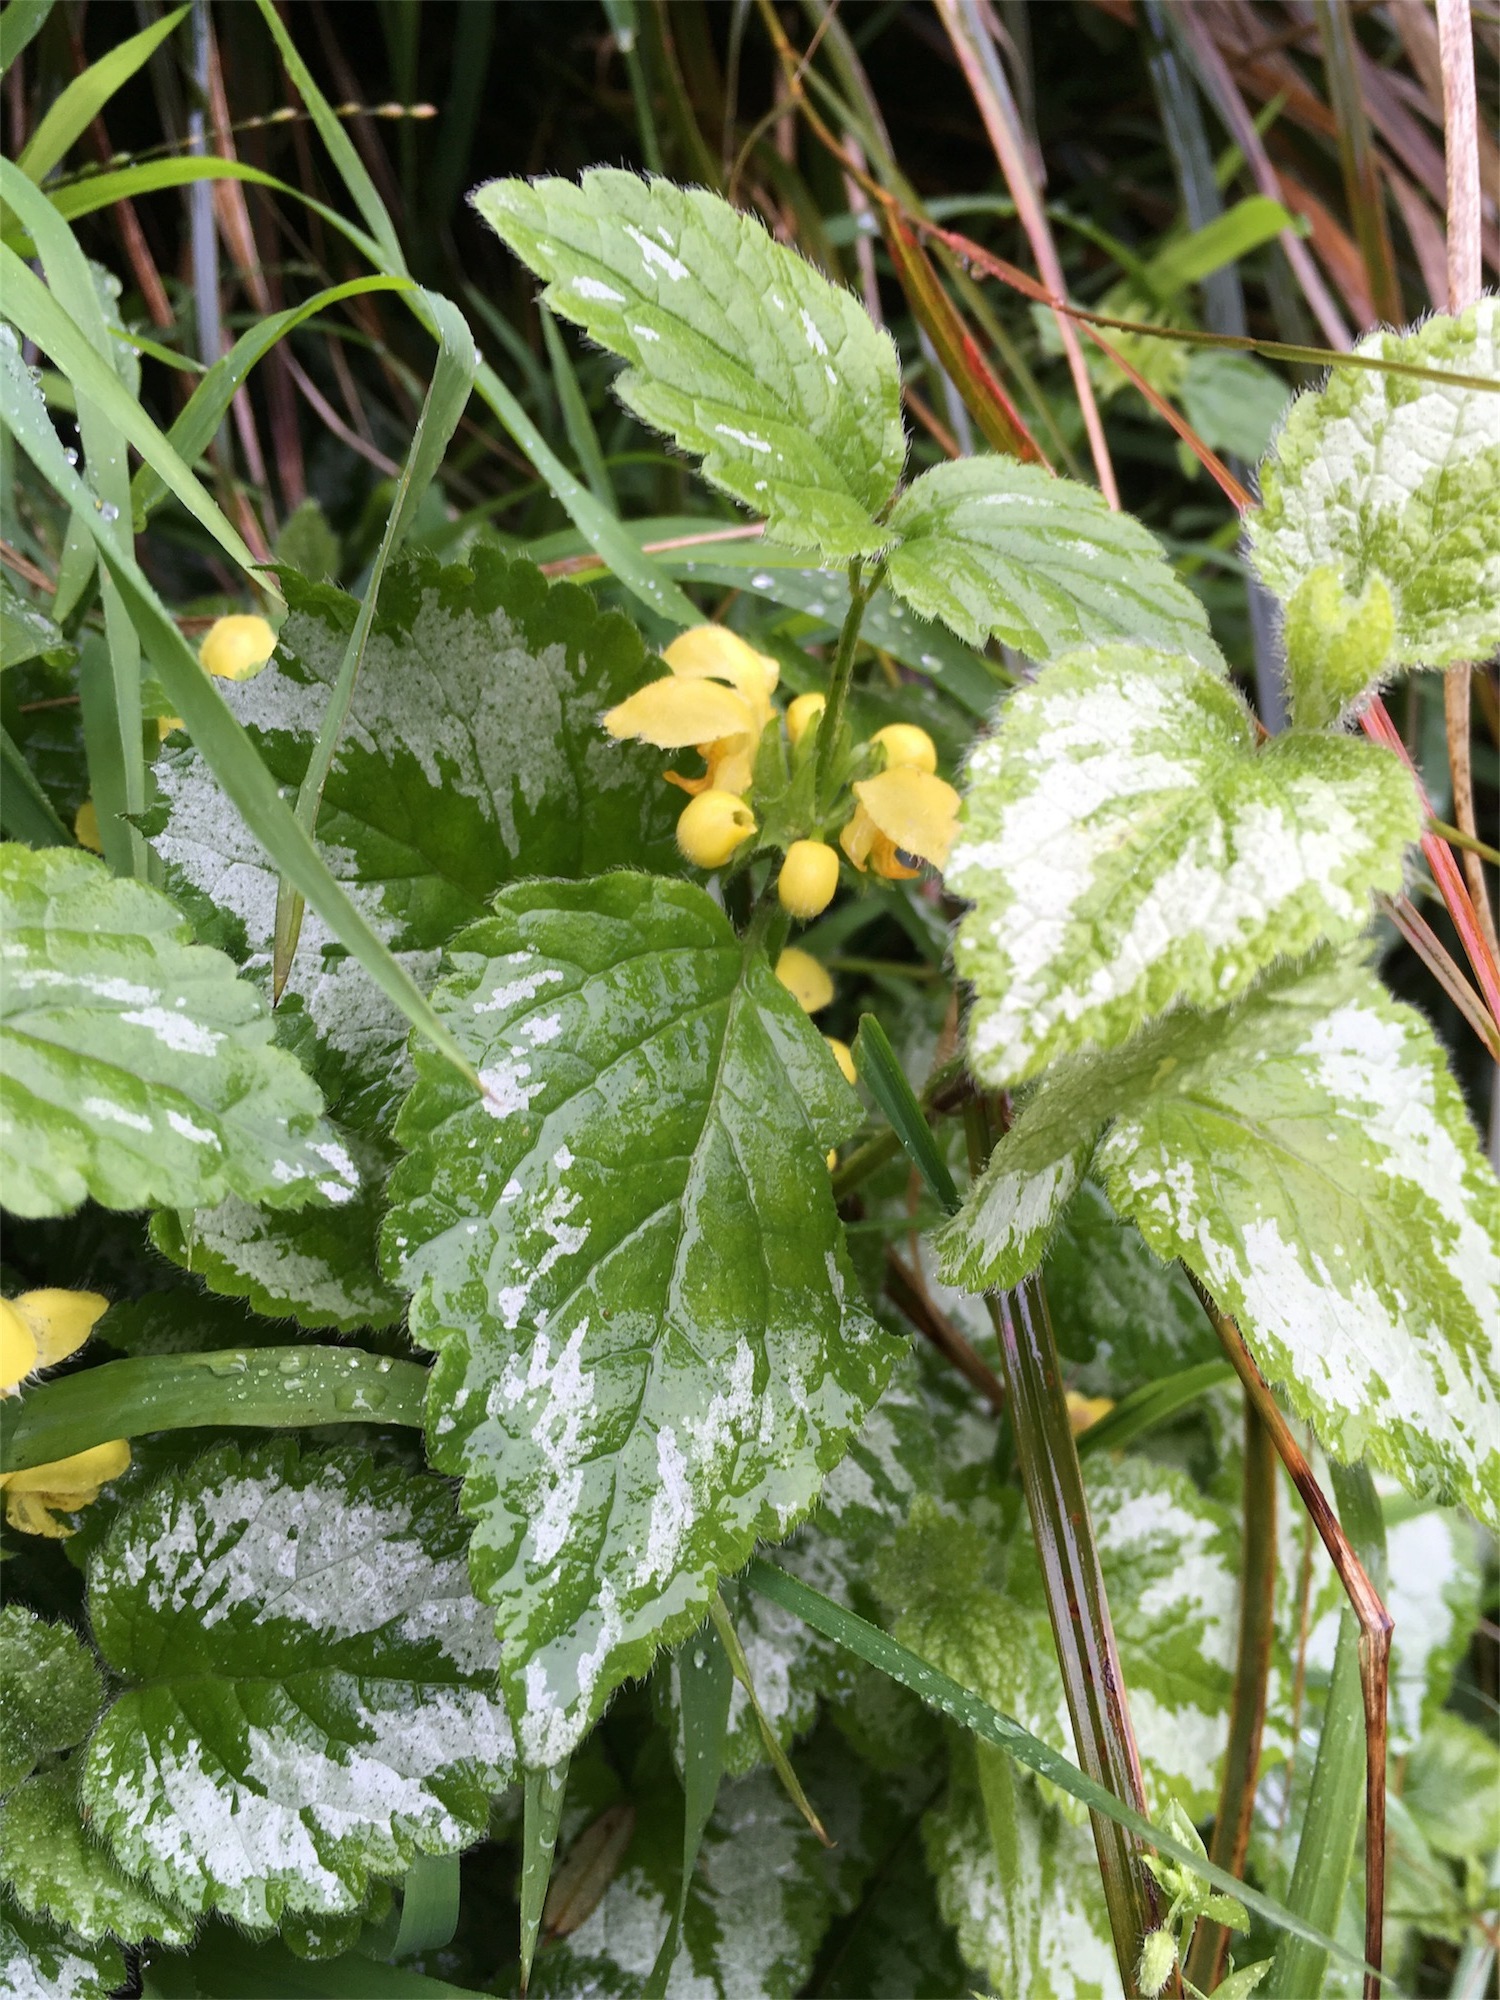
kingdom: Plantae
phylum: Tracheophyta
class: Magnoliopsida
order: Lamiales
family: Lamiaceae
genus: Lamium
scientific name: Lamium galeobdolon
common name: Yellow archangel
